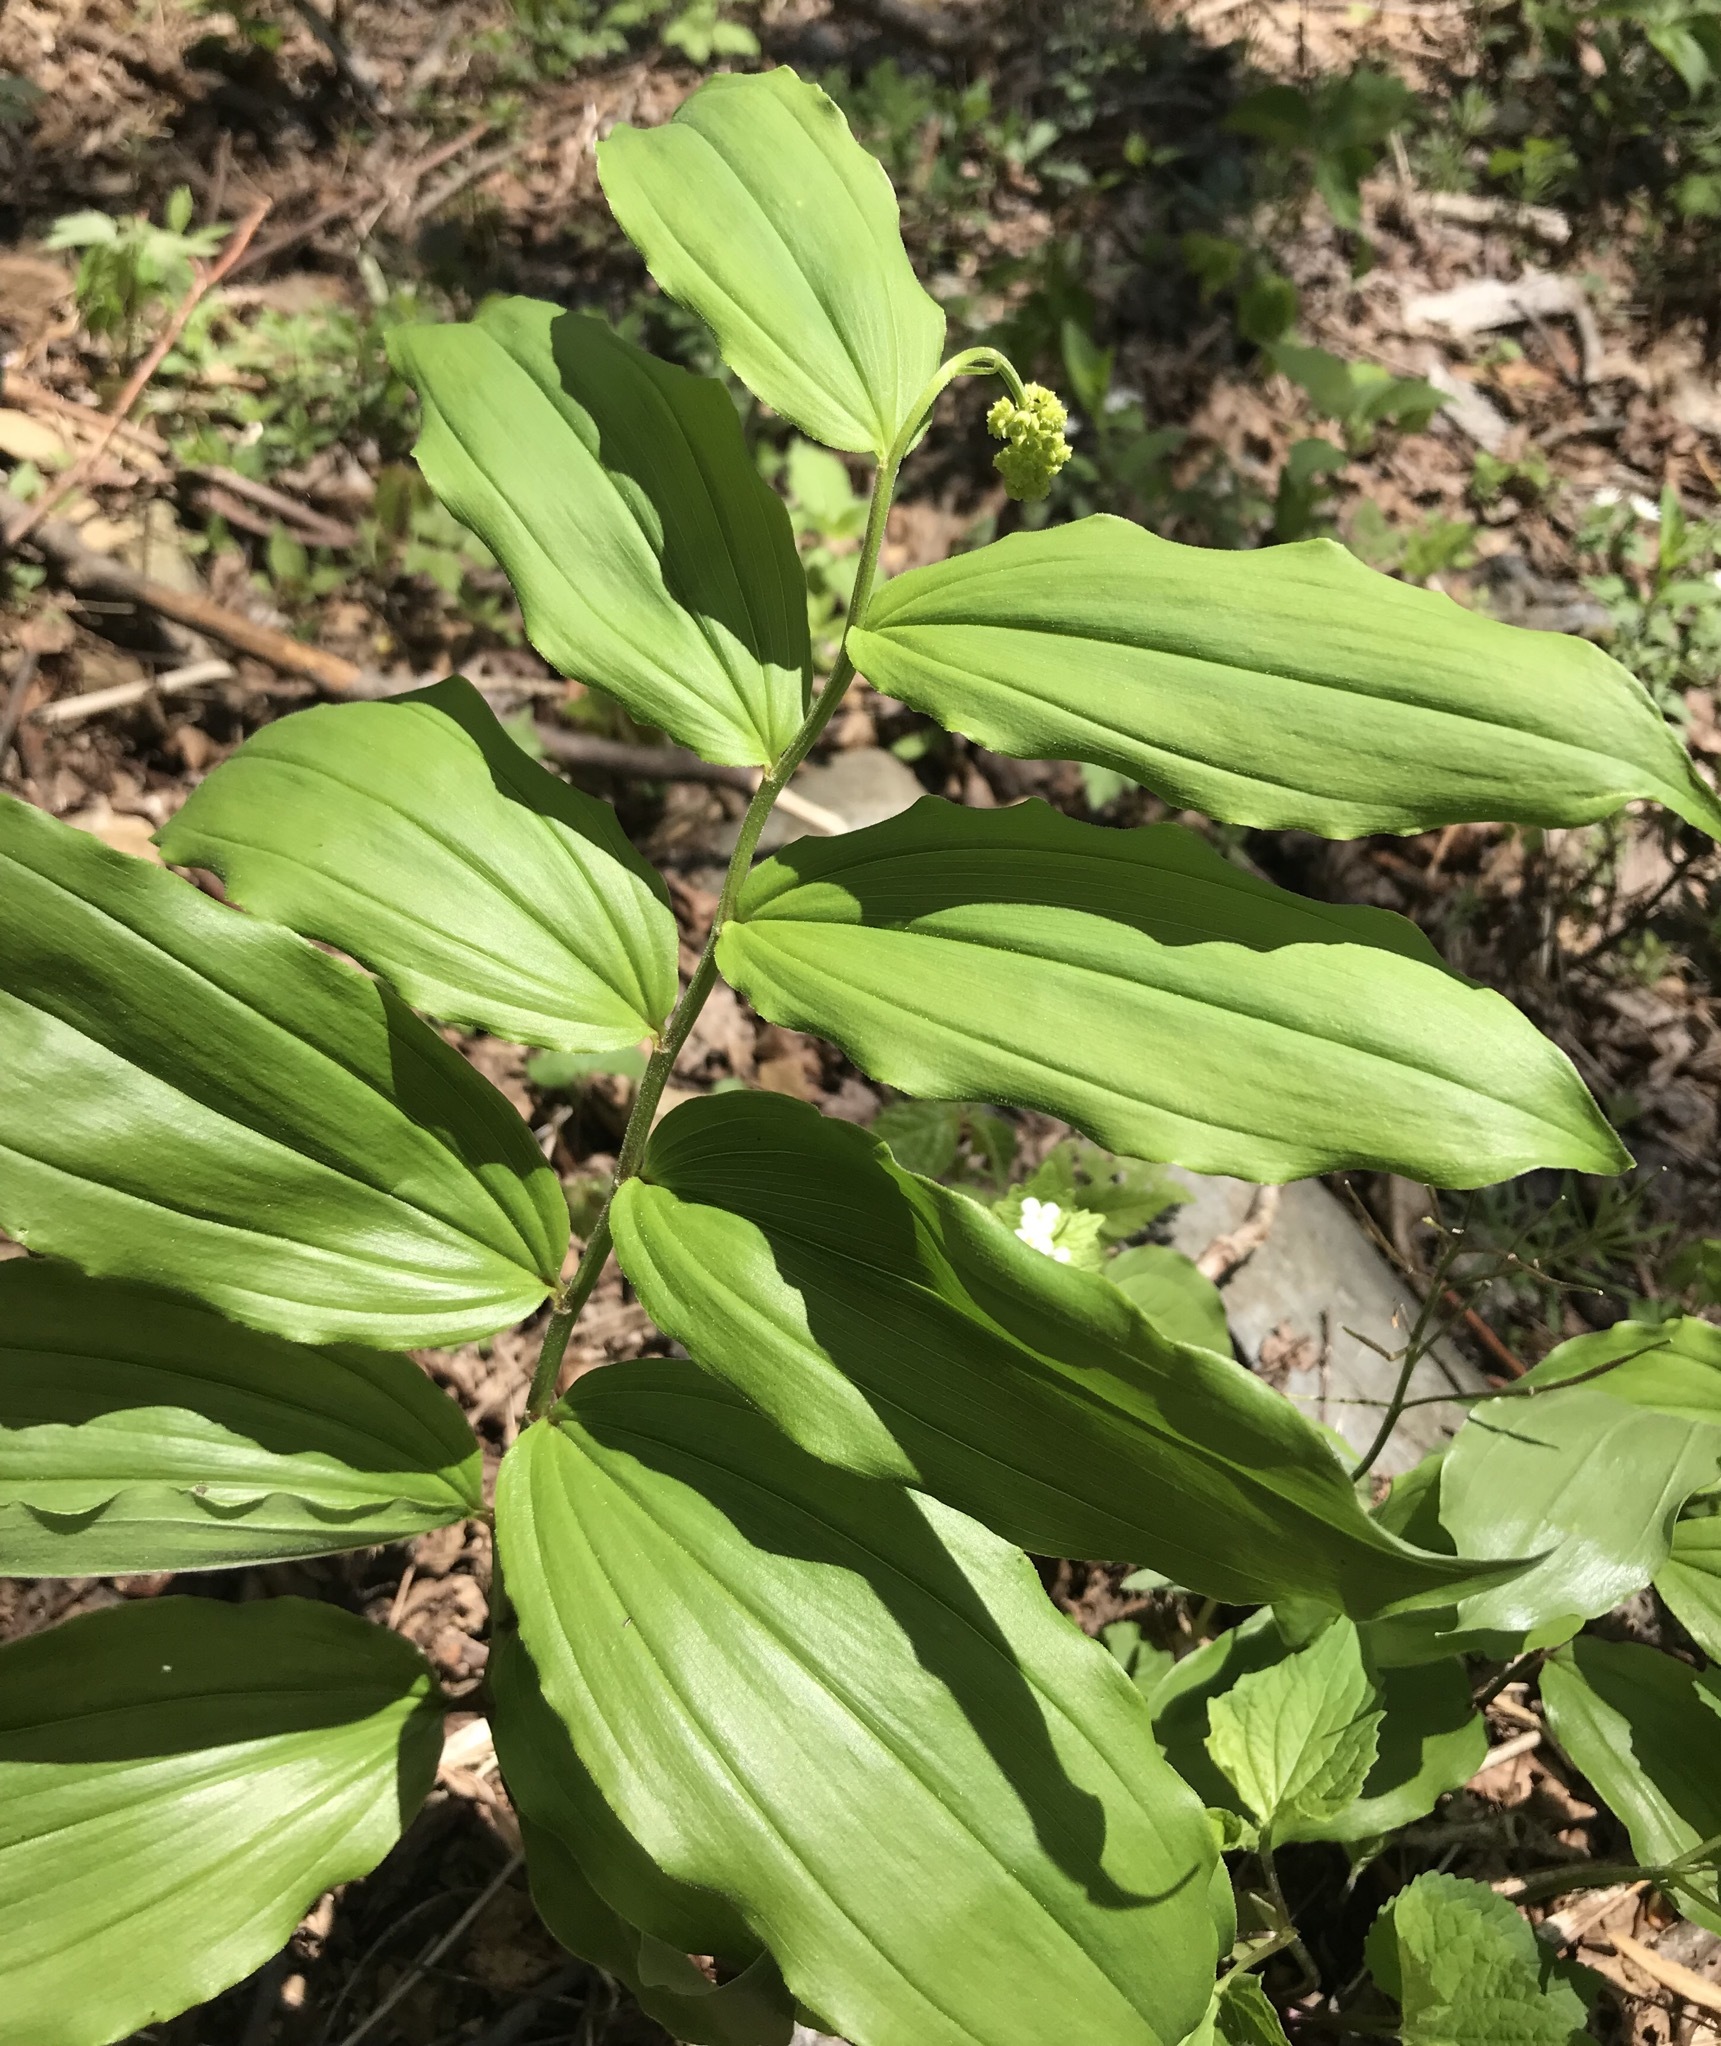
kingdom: Plantae
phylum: Tracheophyta
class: Liliopsida
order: Asparagales
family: Asparagaceae
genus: Maianthemum
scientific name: Maianthemum racemosum
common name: False spikenard
